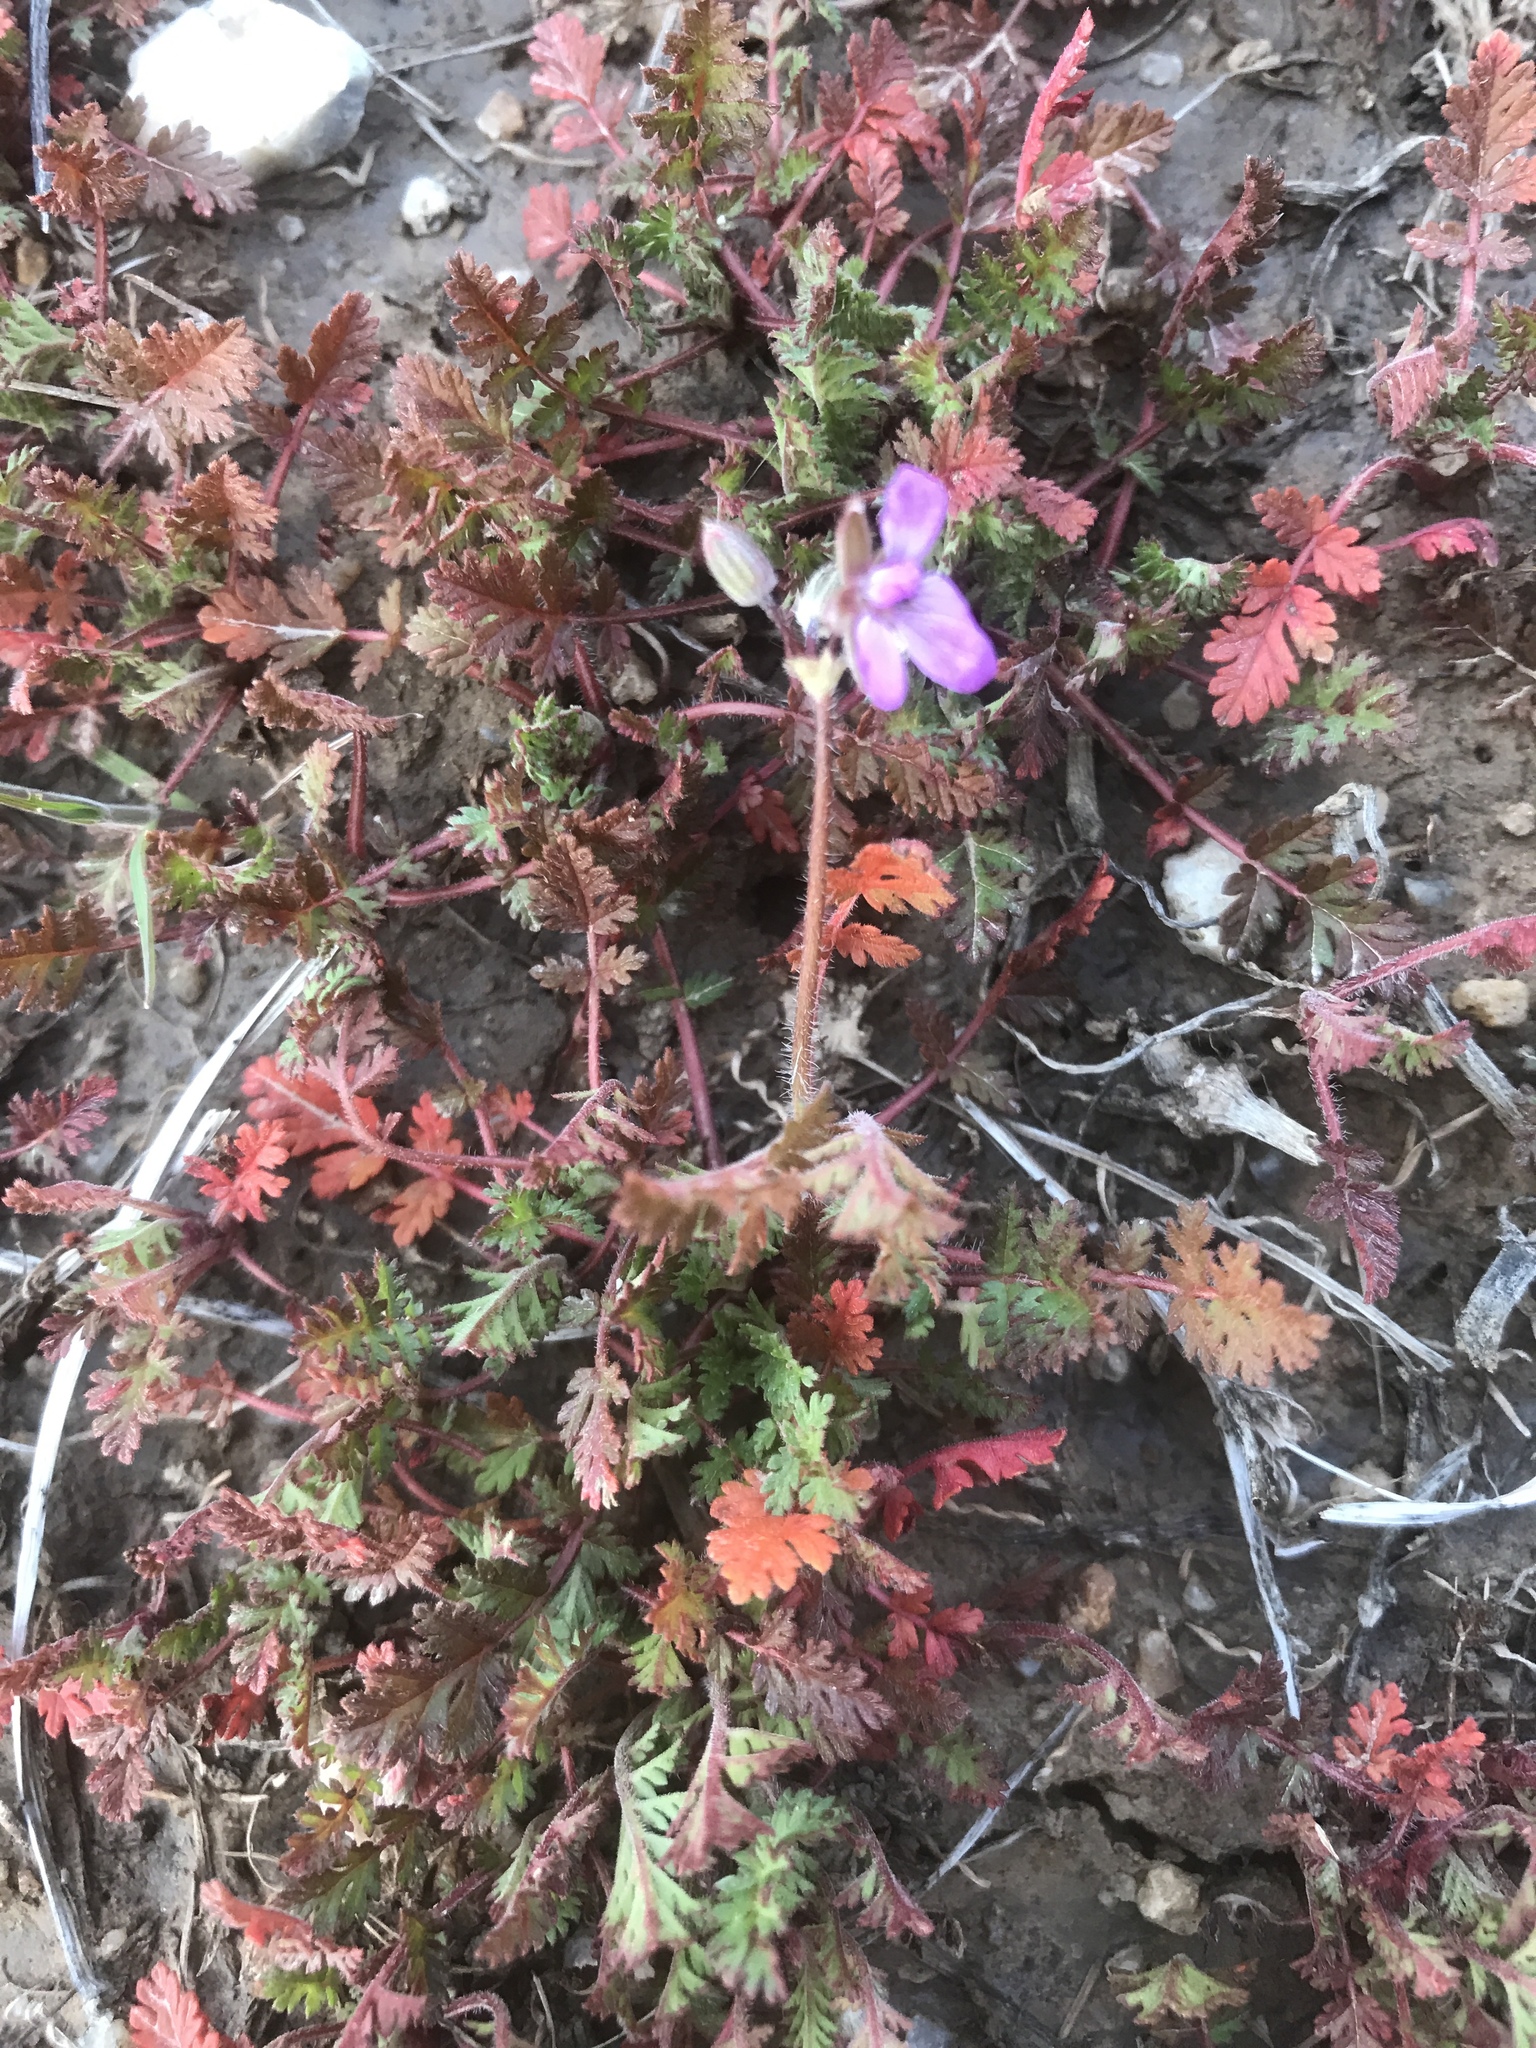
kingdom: Plantae
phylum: Tracheophyta
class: Magnoliopsida
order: Geraniales
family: Geraniaceae
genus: Erodium
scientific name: Erodium cicutarium
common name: Common stork's-bill
